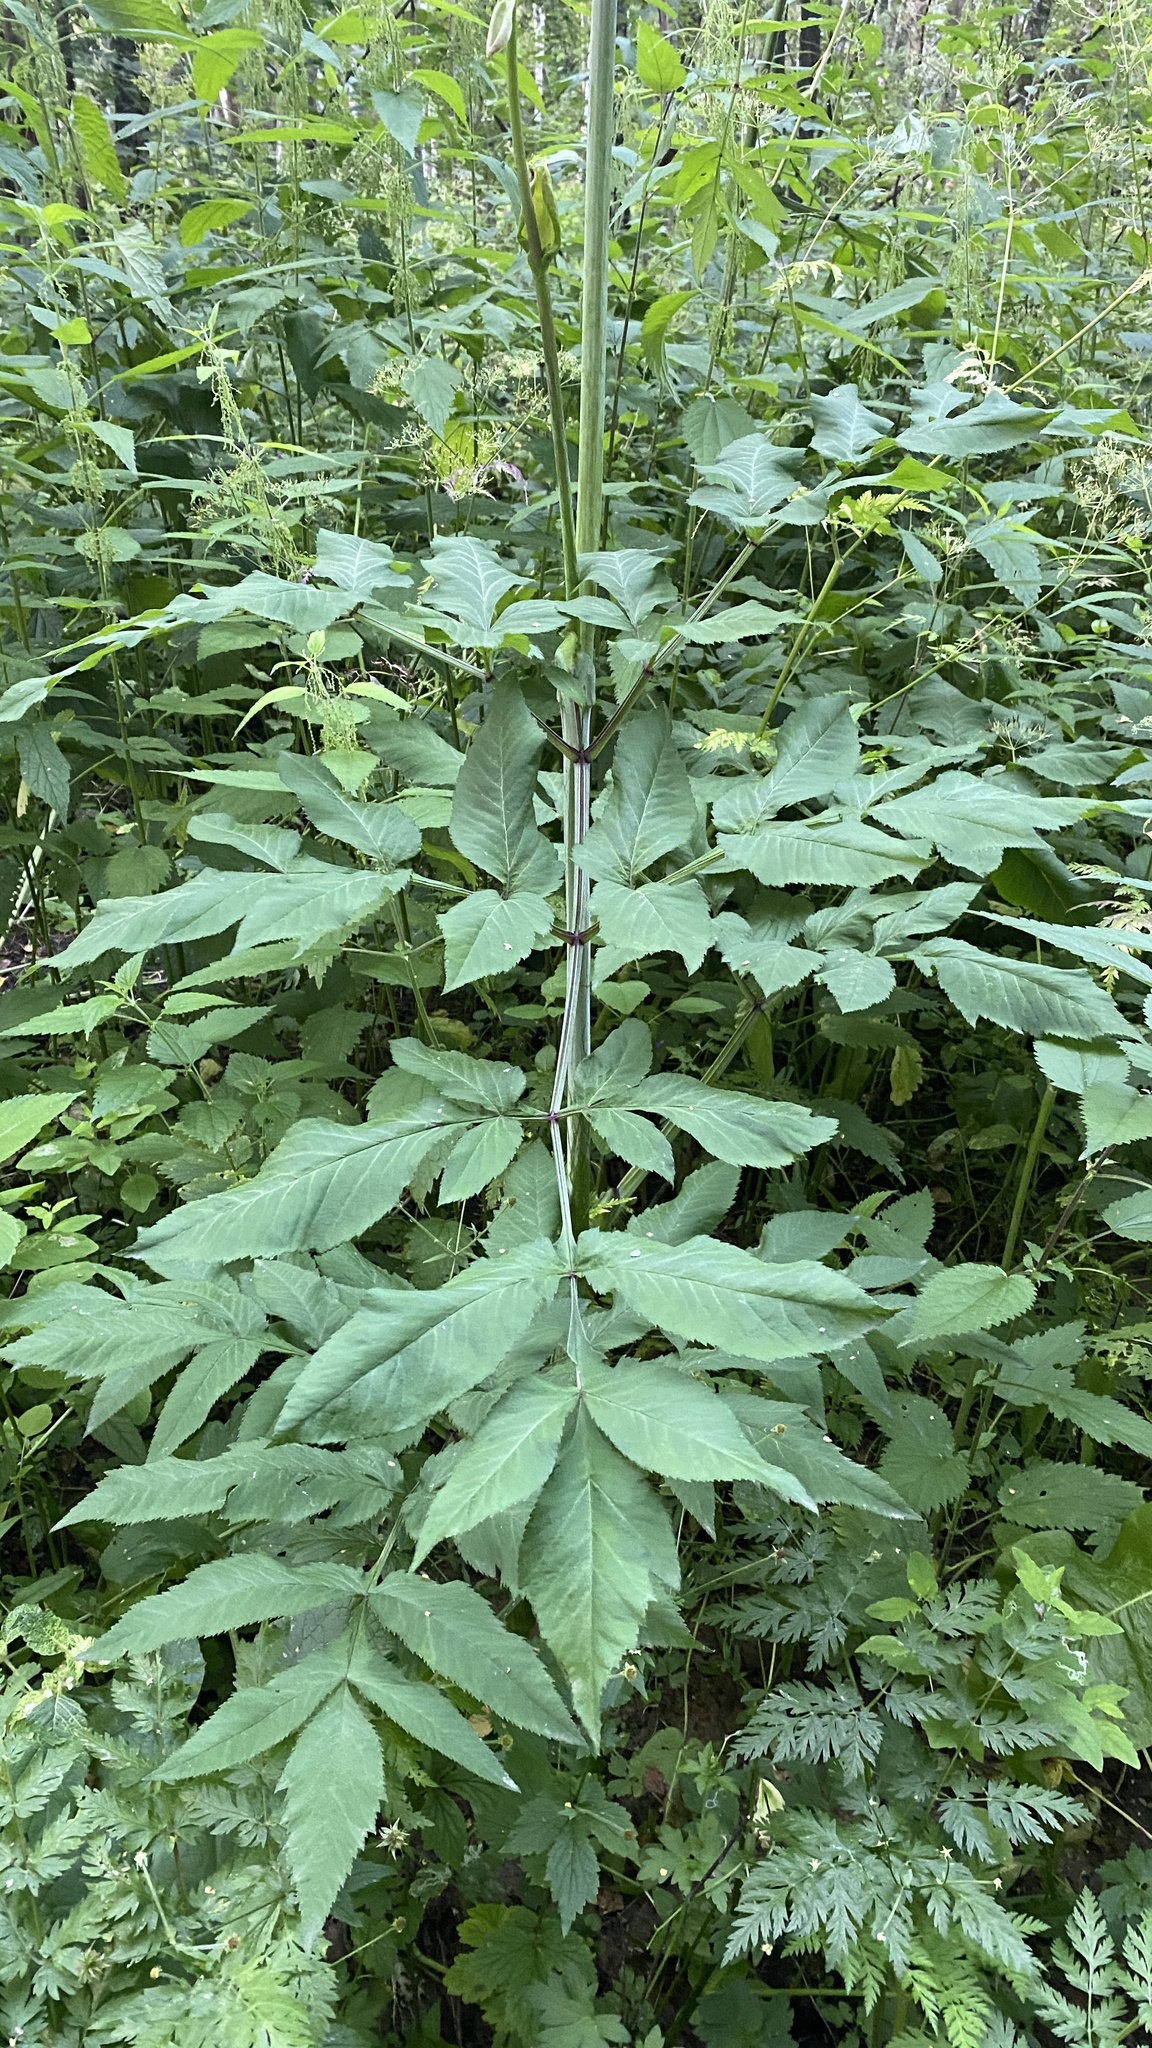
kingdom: Plantae
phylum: Tracheophyta
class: Magnoliopsida
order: Apiales
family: Apiaceae
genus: Angelica
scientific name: Angelica sylvestris
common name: Wild angelica
